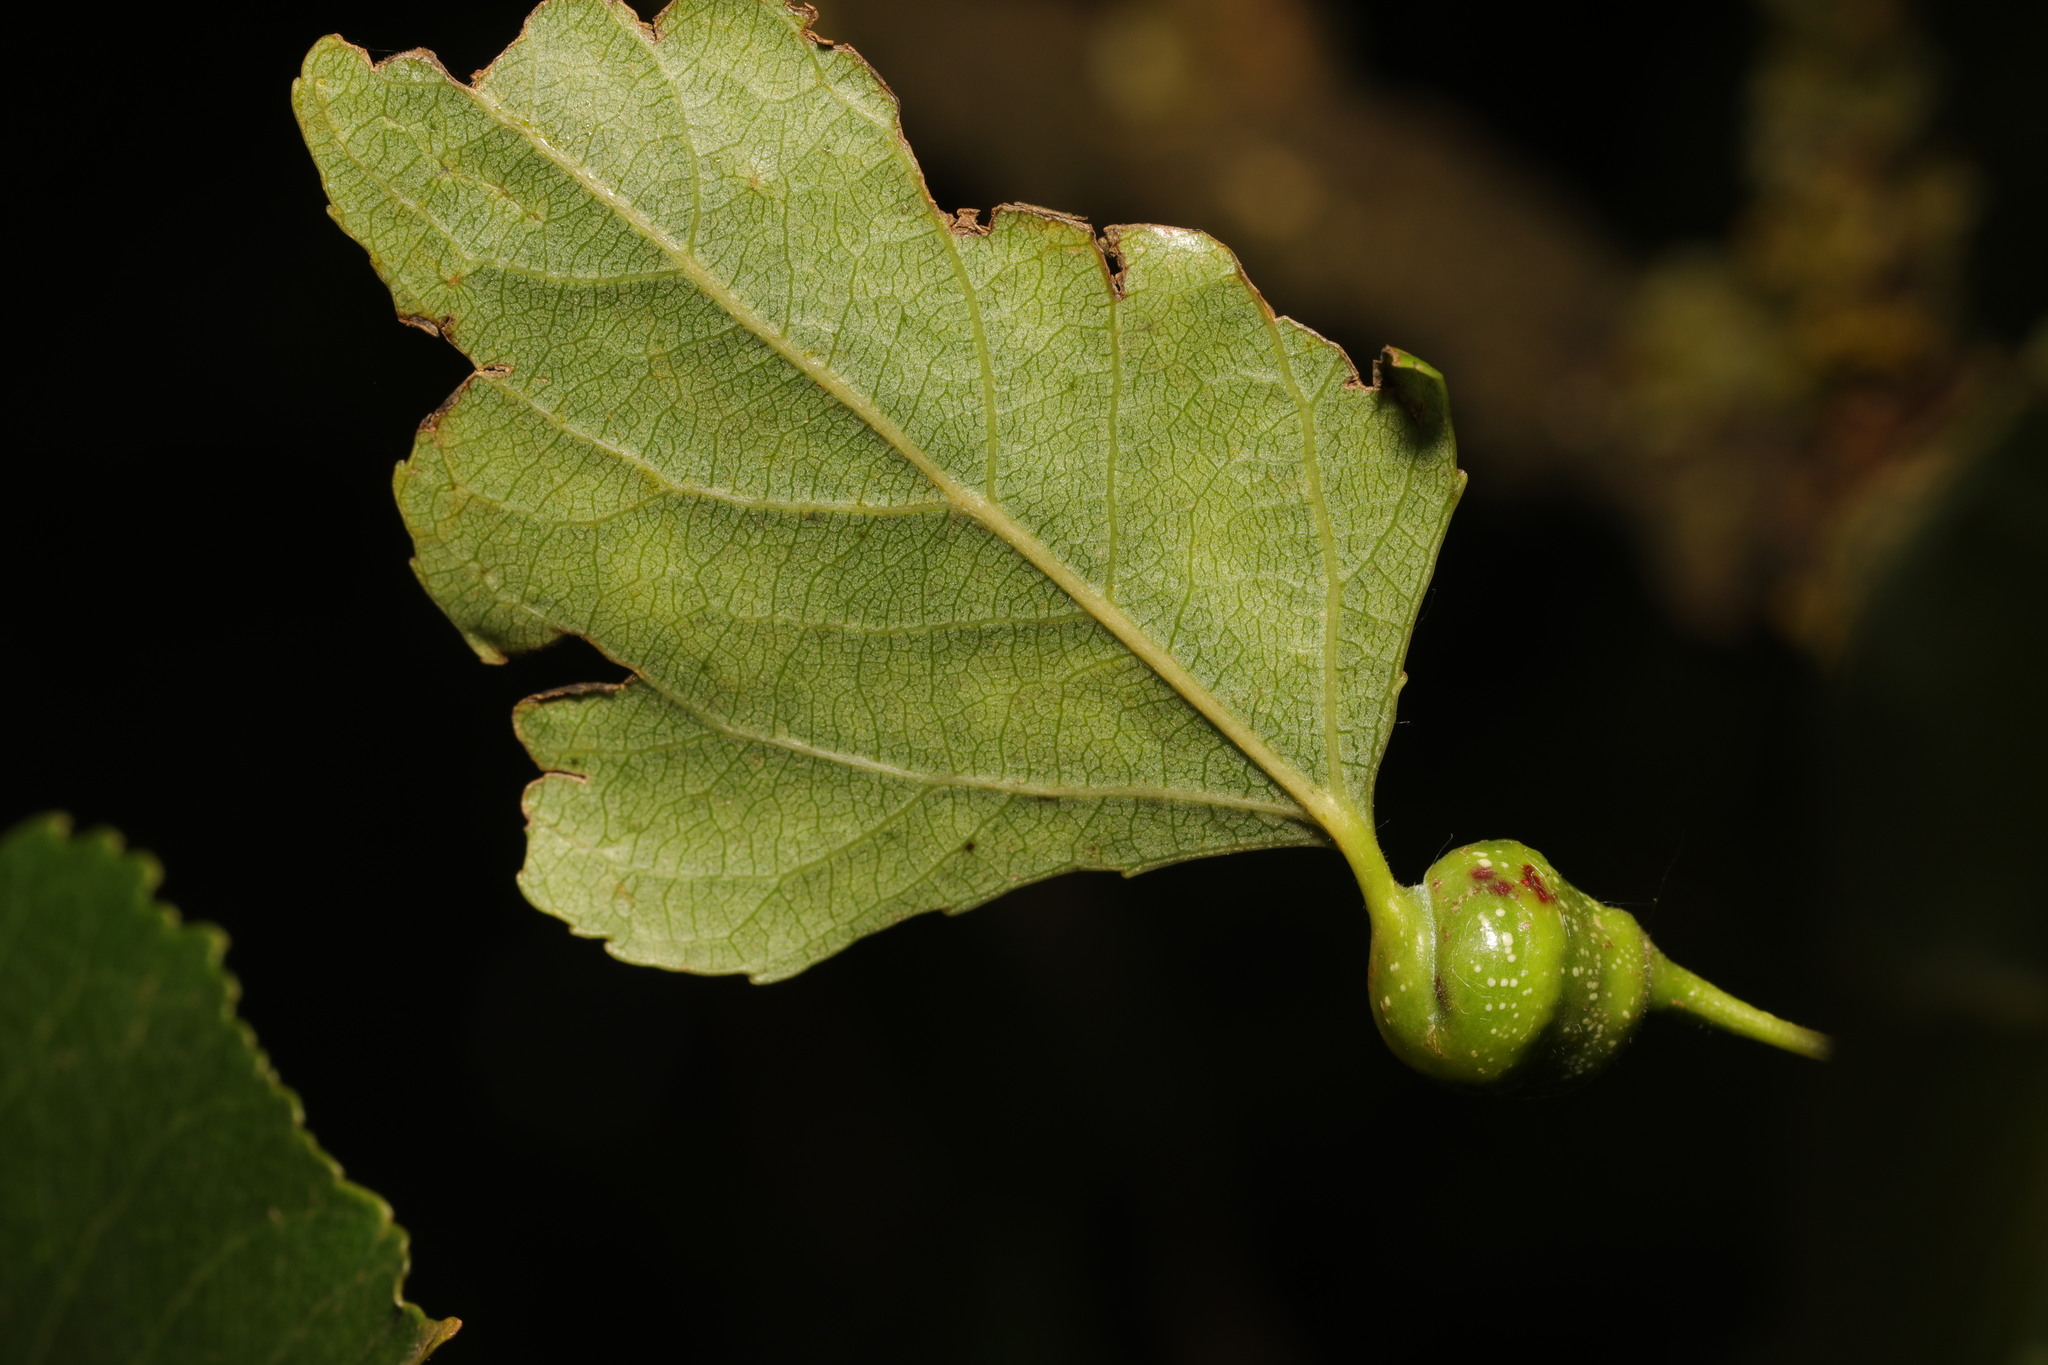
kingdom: Animalia
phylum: Arthropoda
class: Insecta
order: Hemiptera
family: Aphididae
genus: Pemphigus
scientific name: Pemphigus spyrothecae
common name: Aphid
